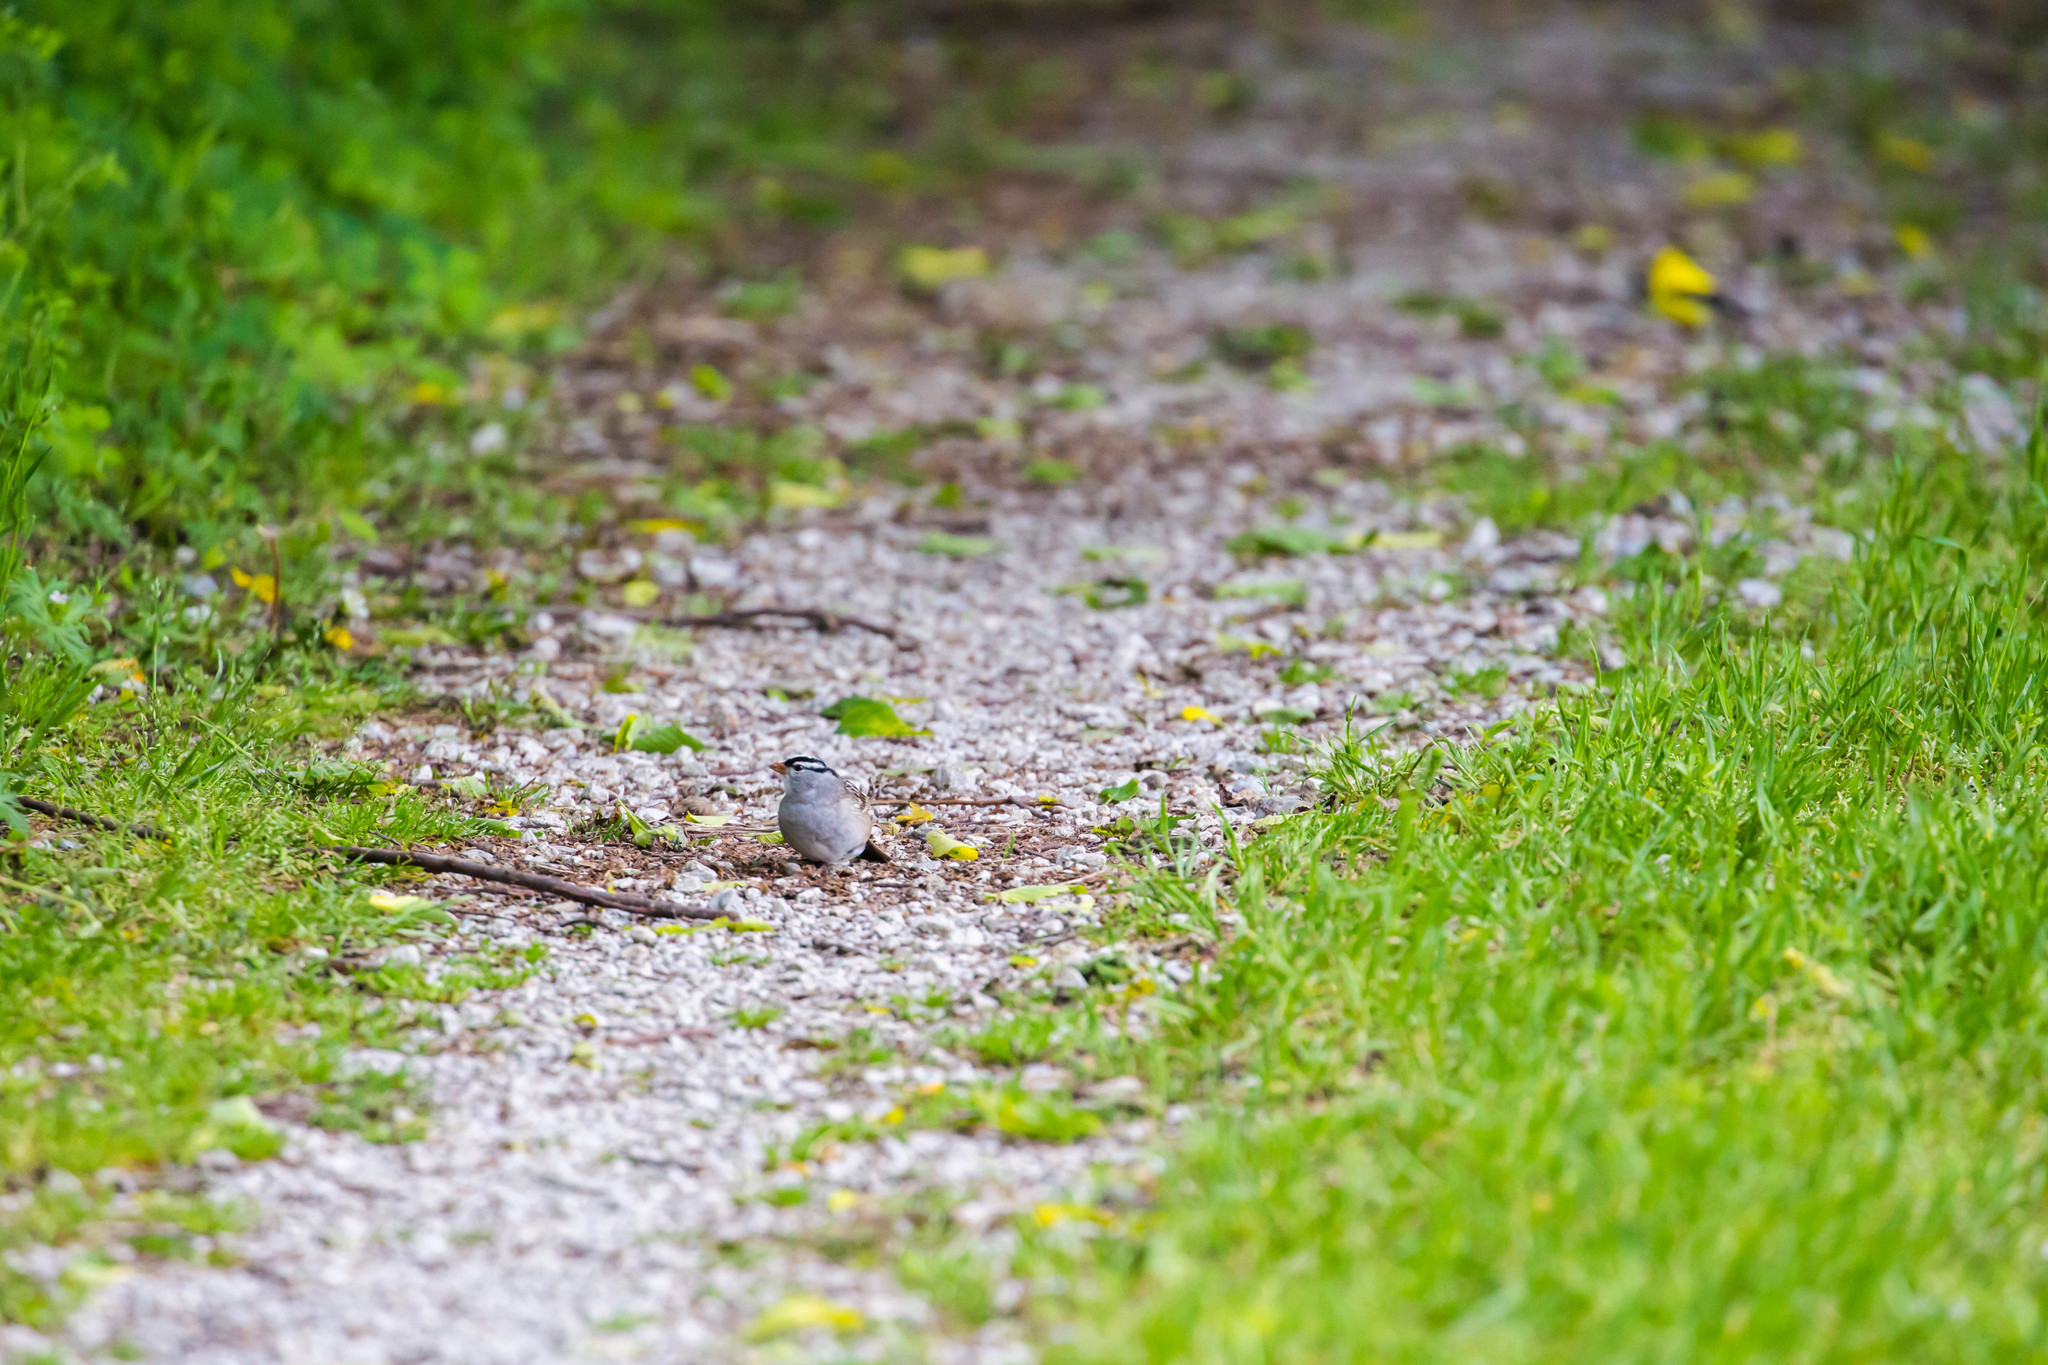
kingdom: Animalia
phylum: Chordata
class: Aves
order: Passeriformes
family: Passerellidae
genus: Zonotrichia
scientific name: Zonotrichia leucophrys
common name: White-crowned sparrow
